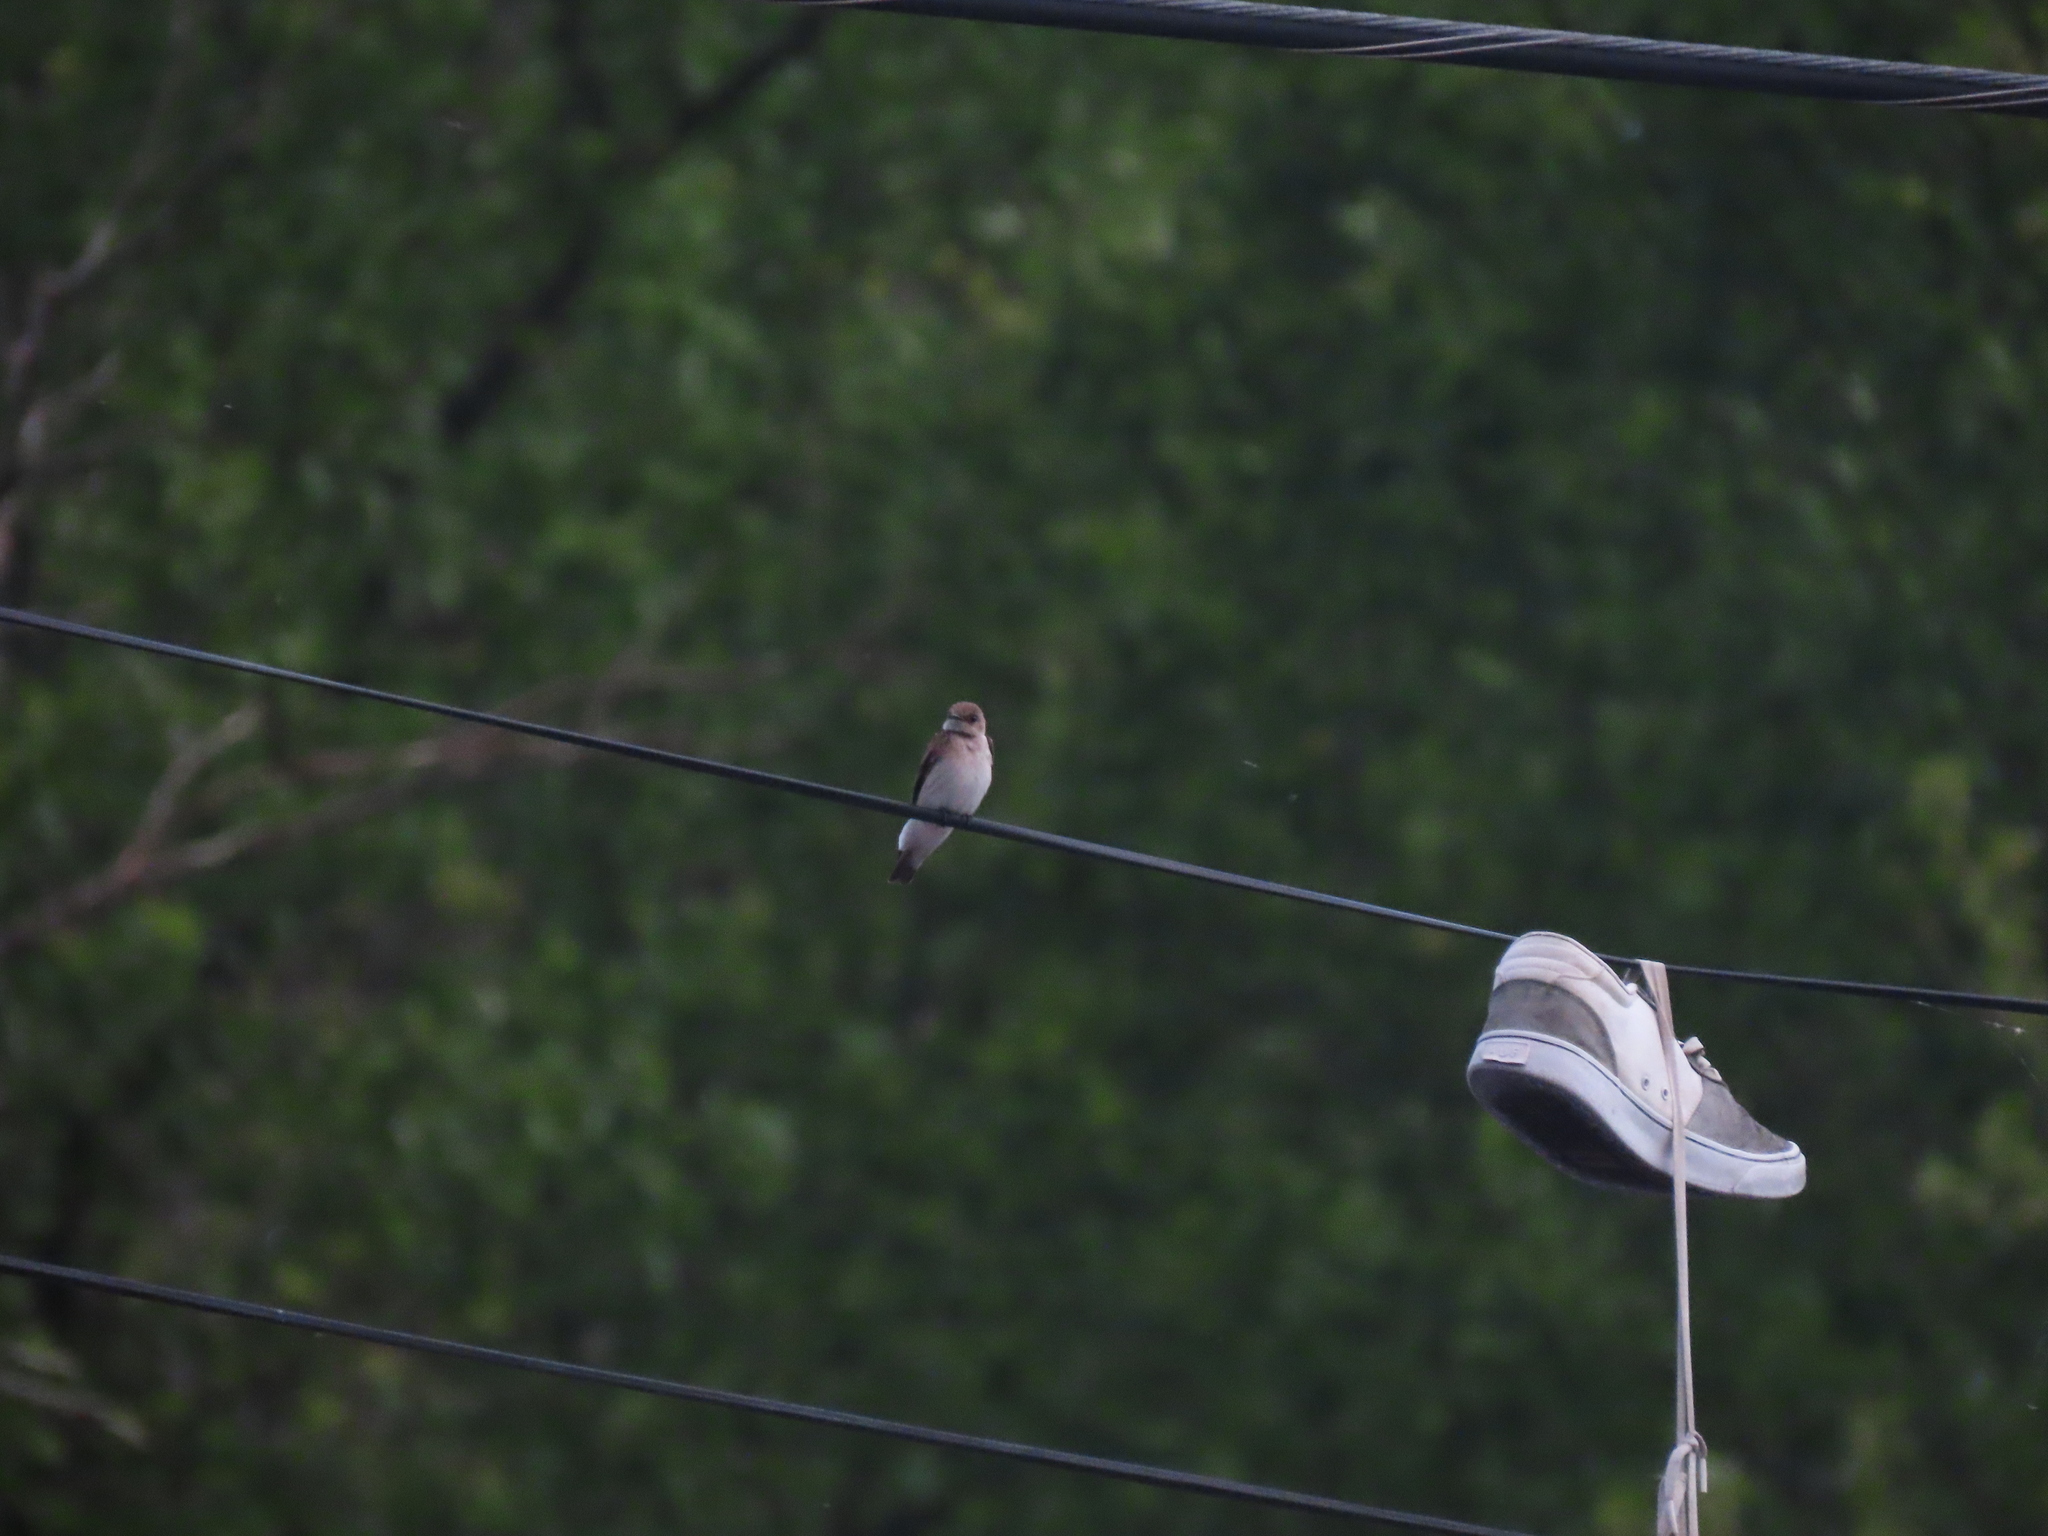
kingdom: Animalia
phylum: Chordata
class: Aves
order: Passeriformes
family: Hirundinidae
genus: Stelgidopteryx
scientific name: Stelgidopteryx serripennis
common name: Northern rough-winged swallow
